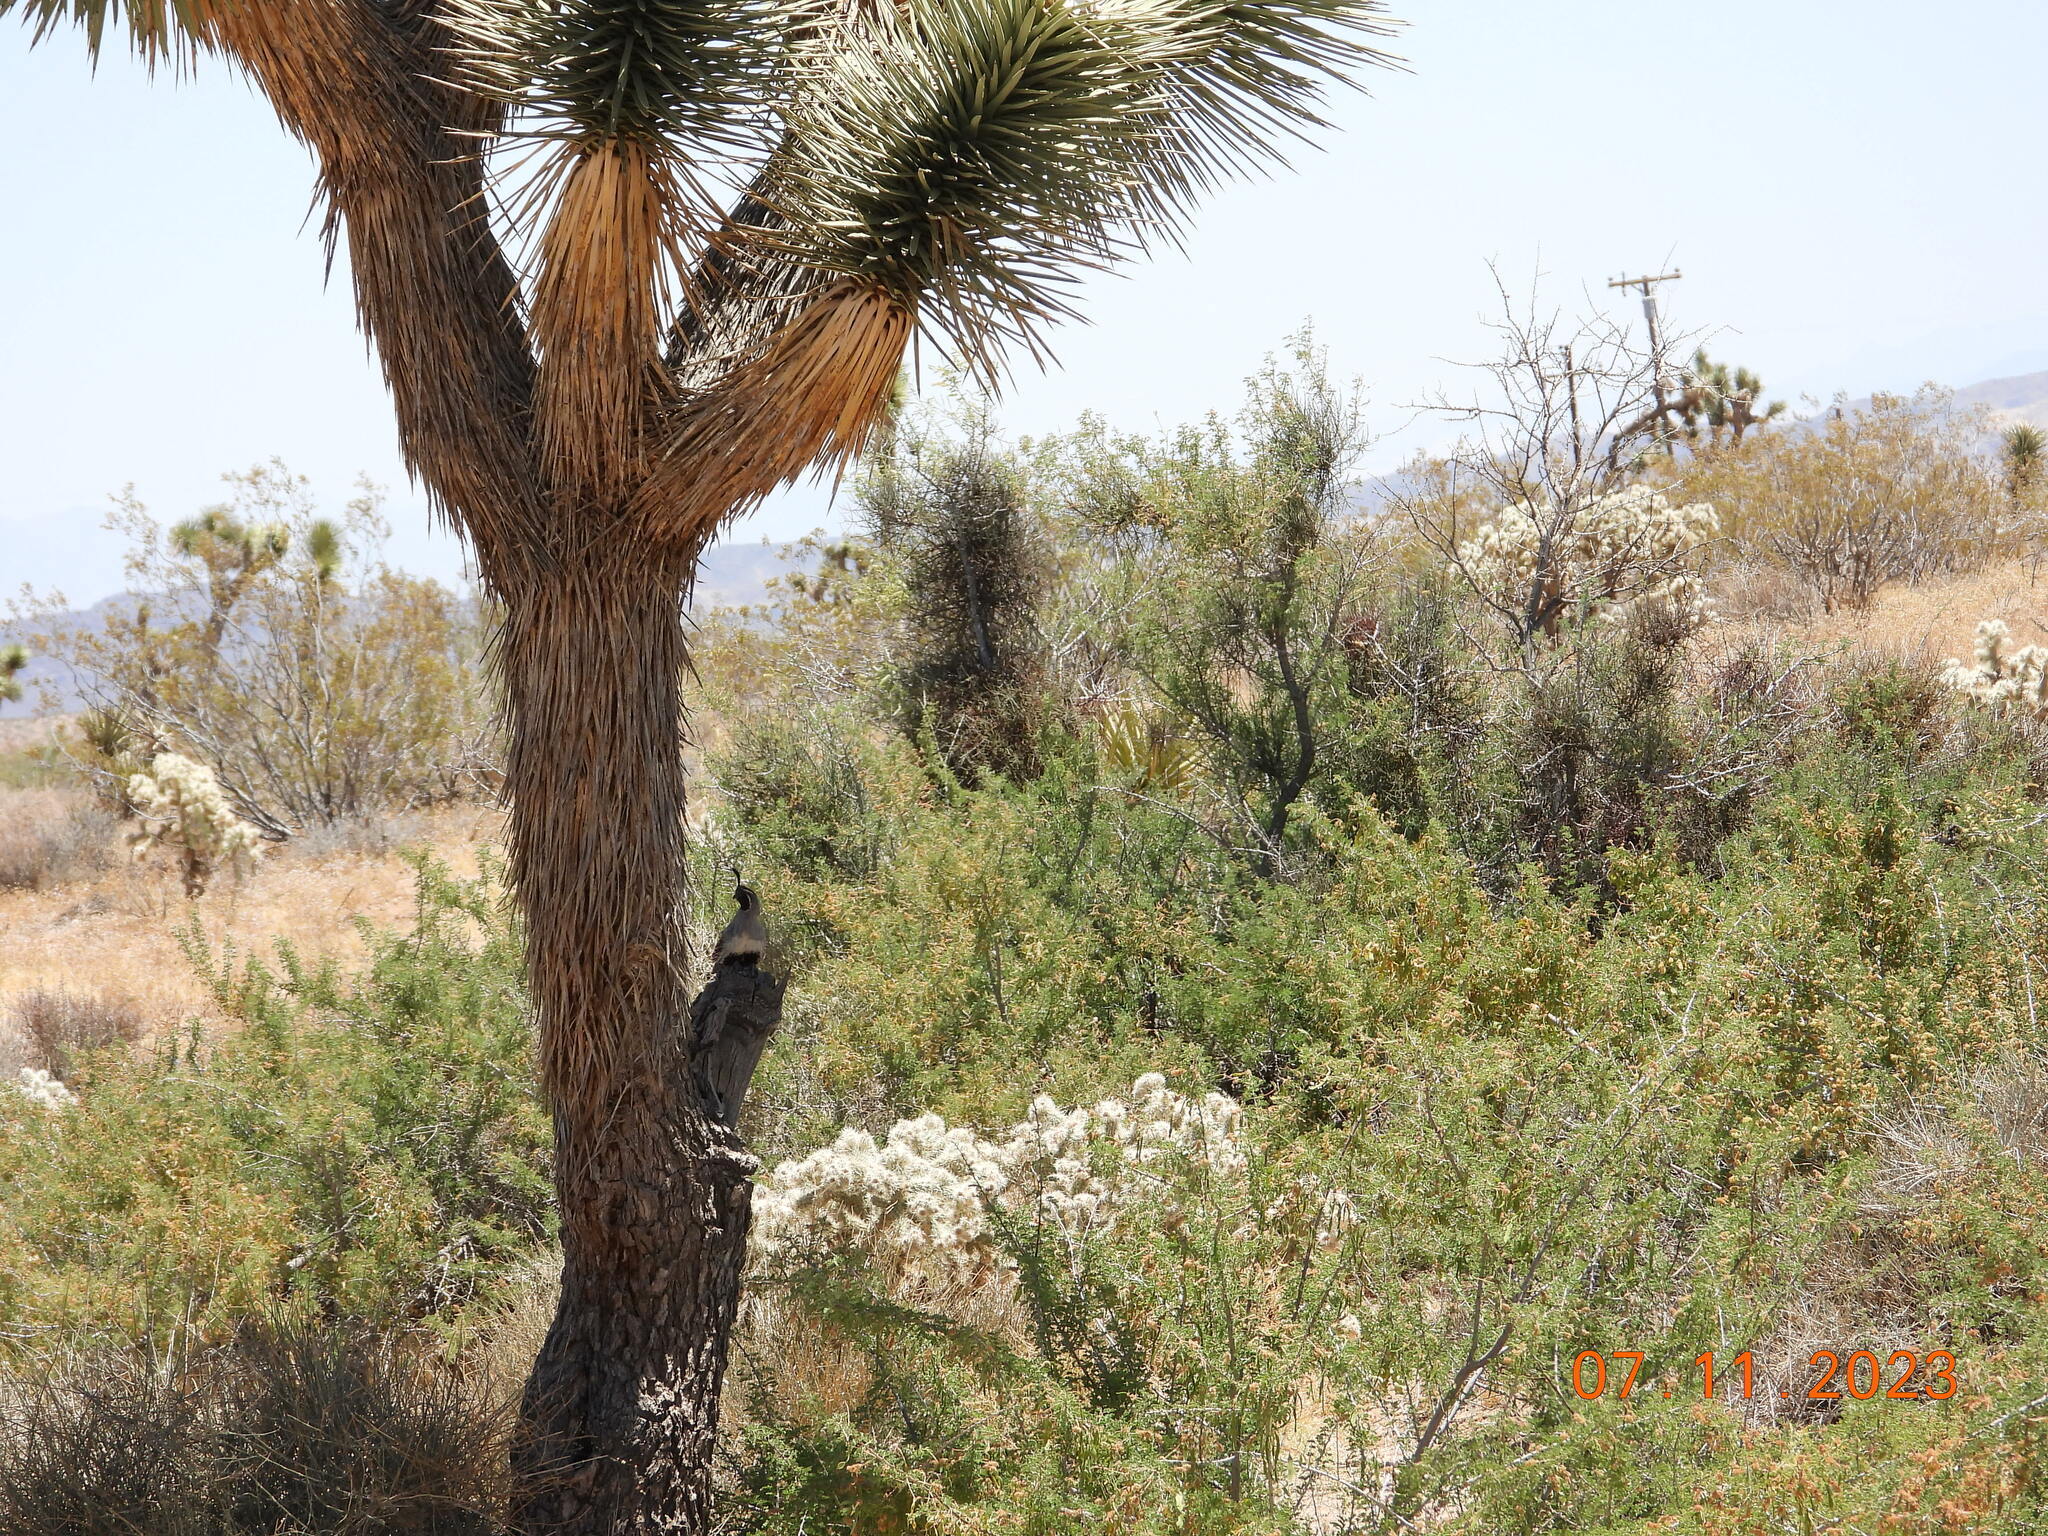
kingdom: Animalia
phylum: Chordata
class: Aves
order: Galliformes
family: Odontophoridae
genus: Callipepla
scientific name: Callipepla gambelii
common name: Gambel's quail
